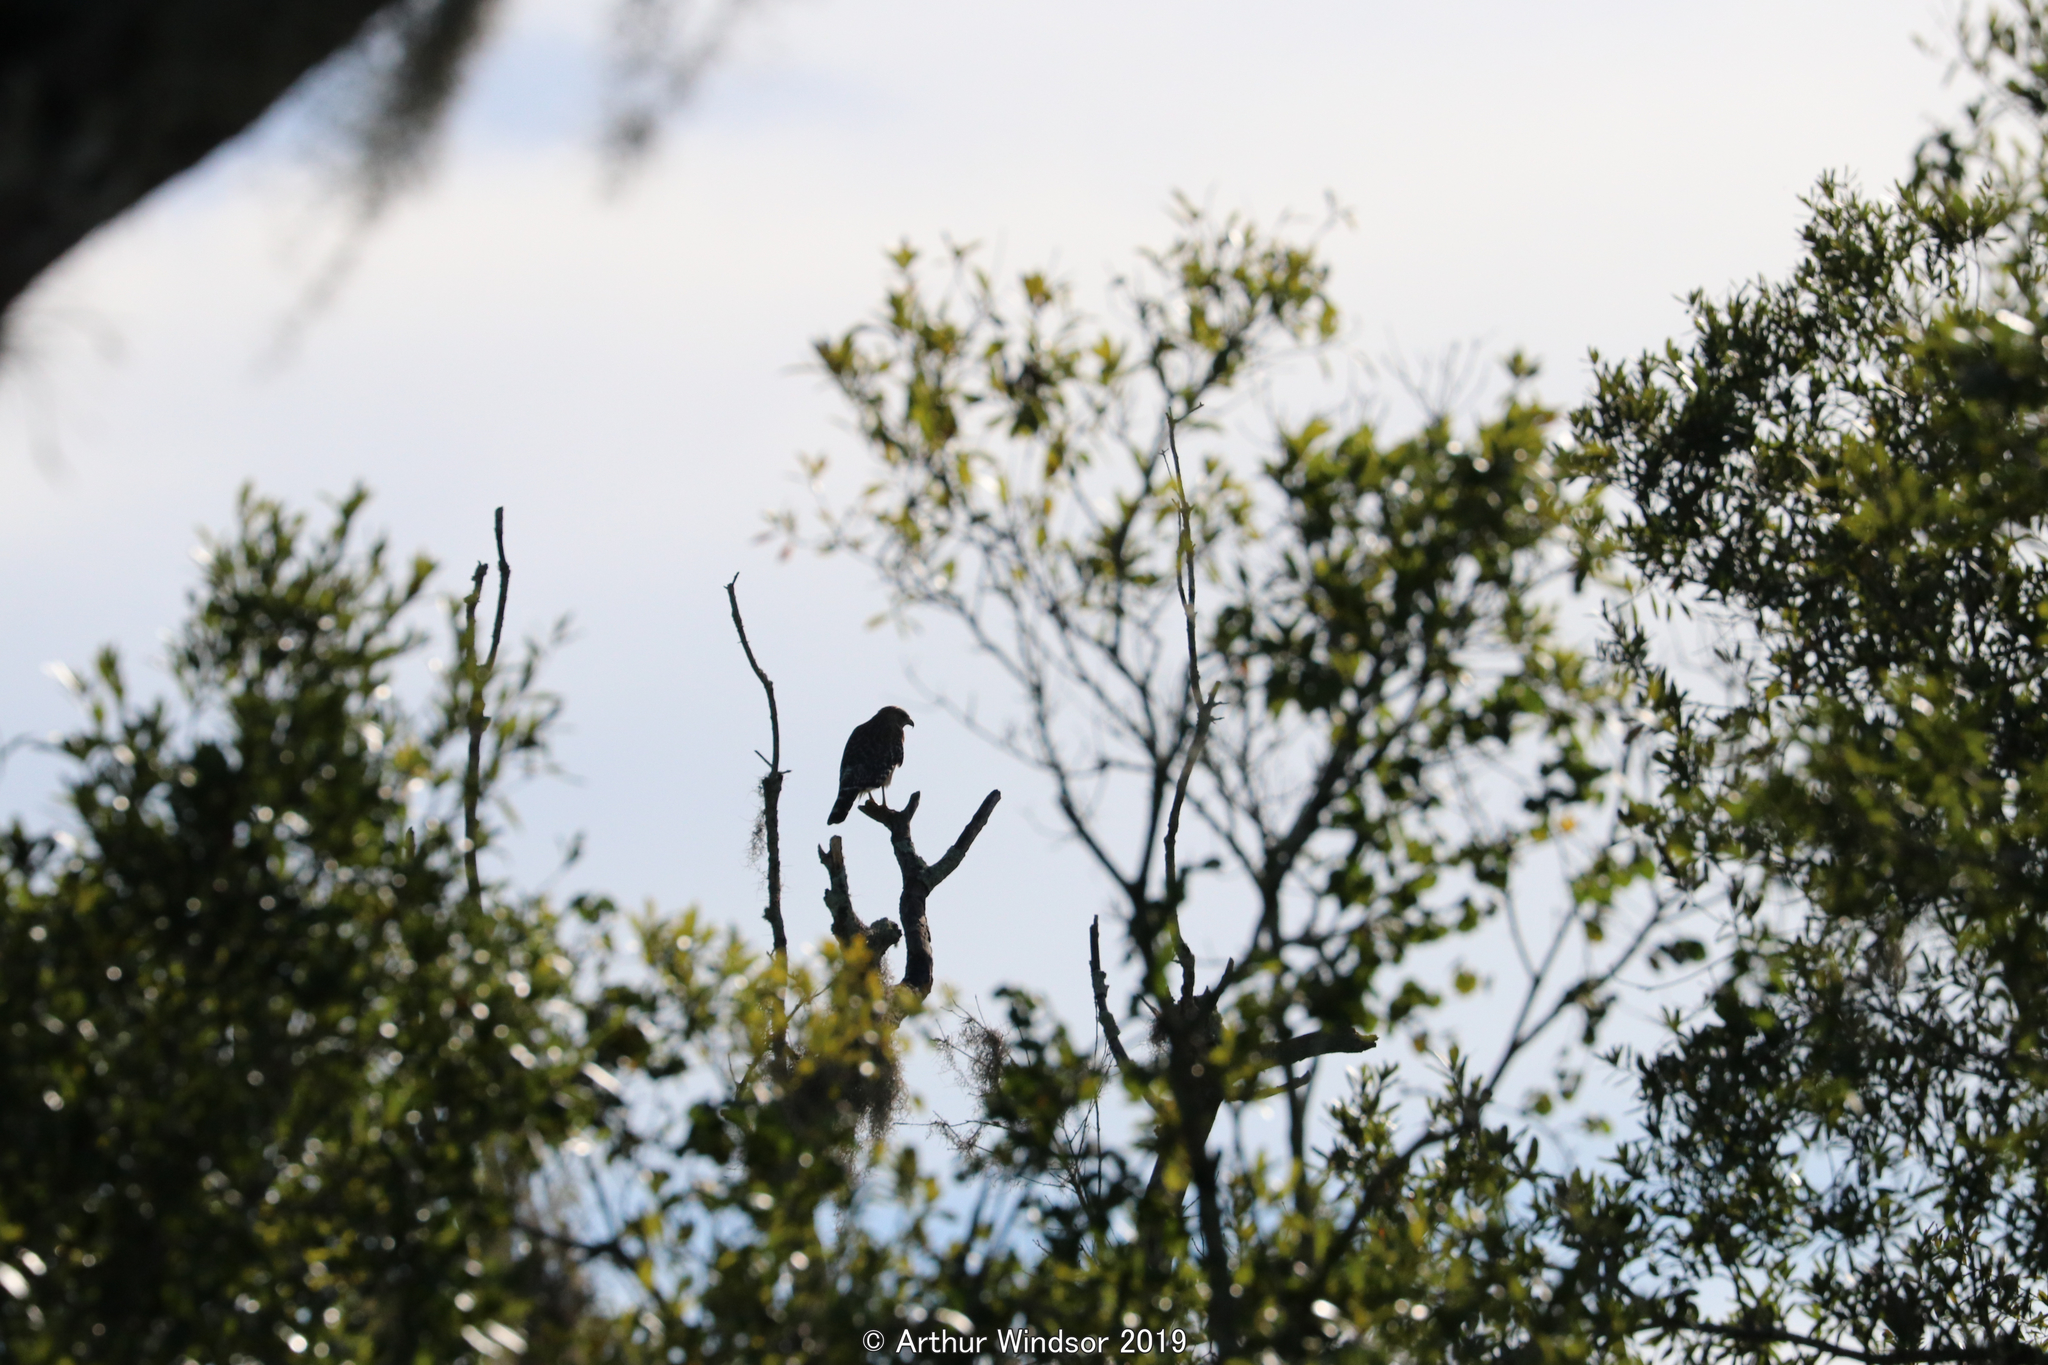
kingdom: Animalia
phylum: Chordata
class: Aves
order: Accipitriformes
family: Accipitridae
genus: Buteo
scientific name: Buteo lineatus
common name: Red-shouldered hawk
